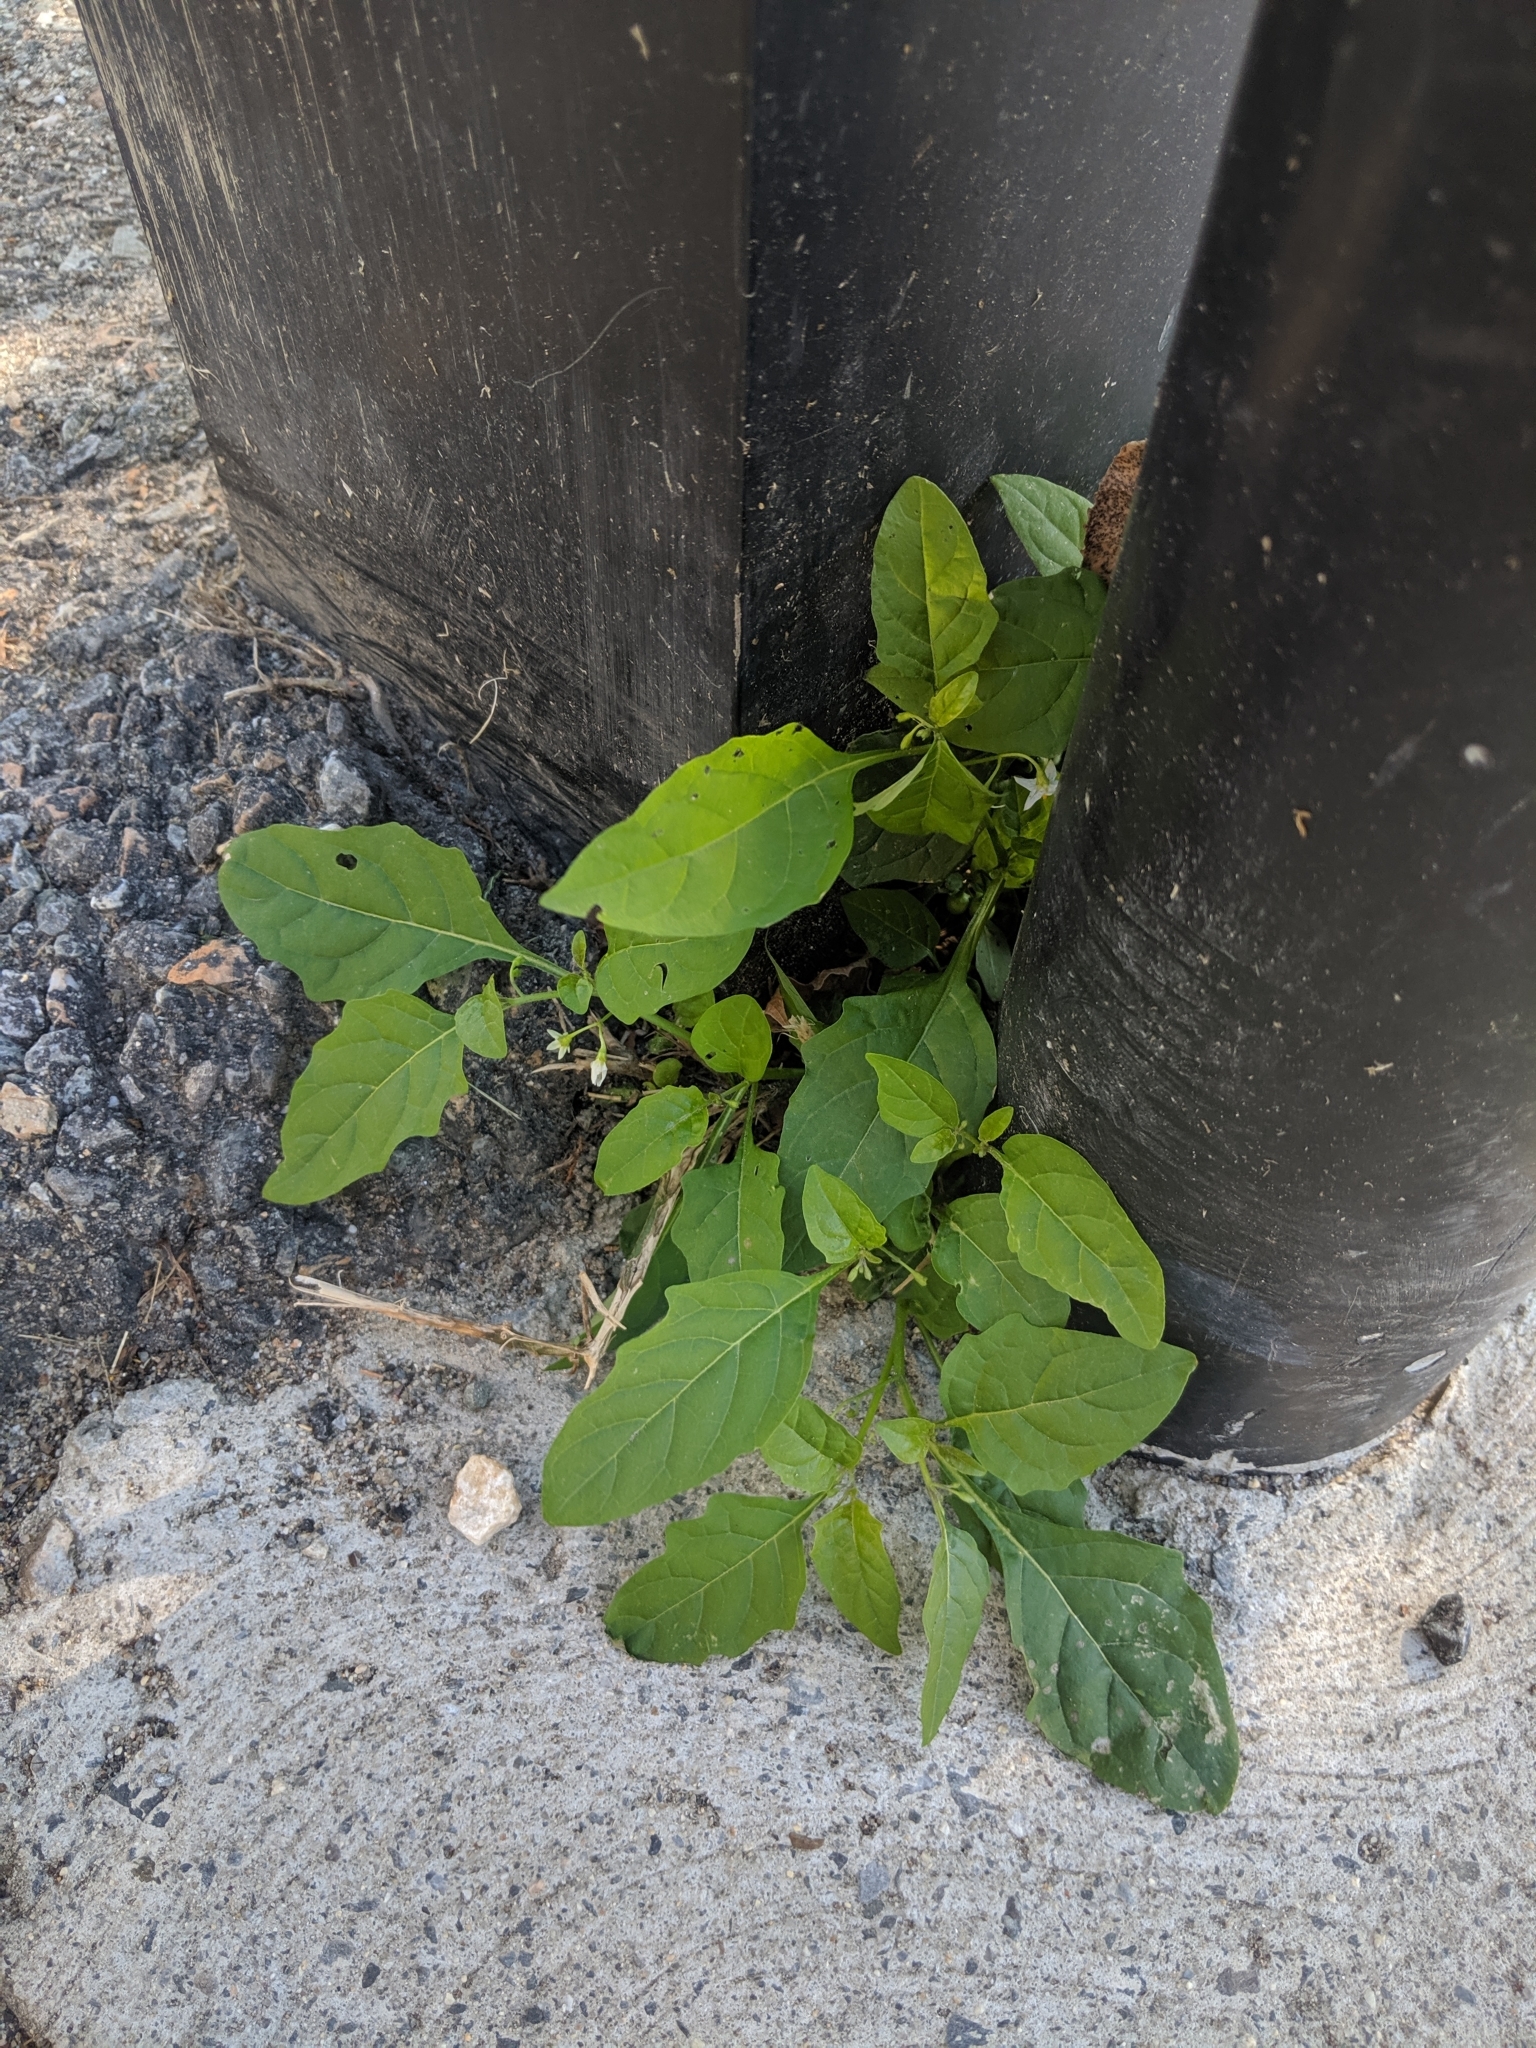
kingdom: Plantae
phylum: Tracheophyta
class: Magnoliopsida
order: Solanales
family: Solanaceae
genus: Solanum
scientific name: Solanum emulans
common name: Eastern black nightshade
